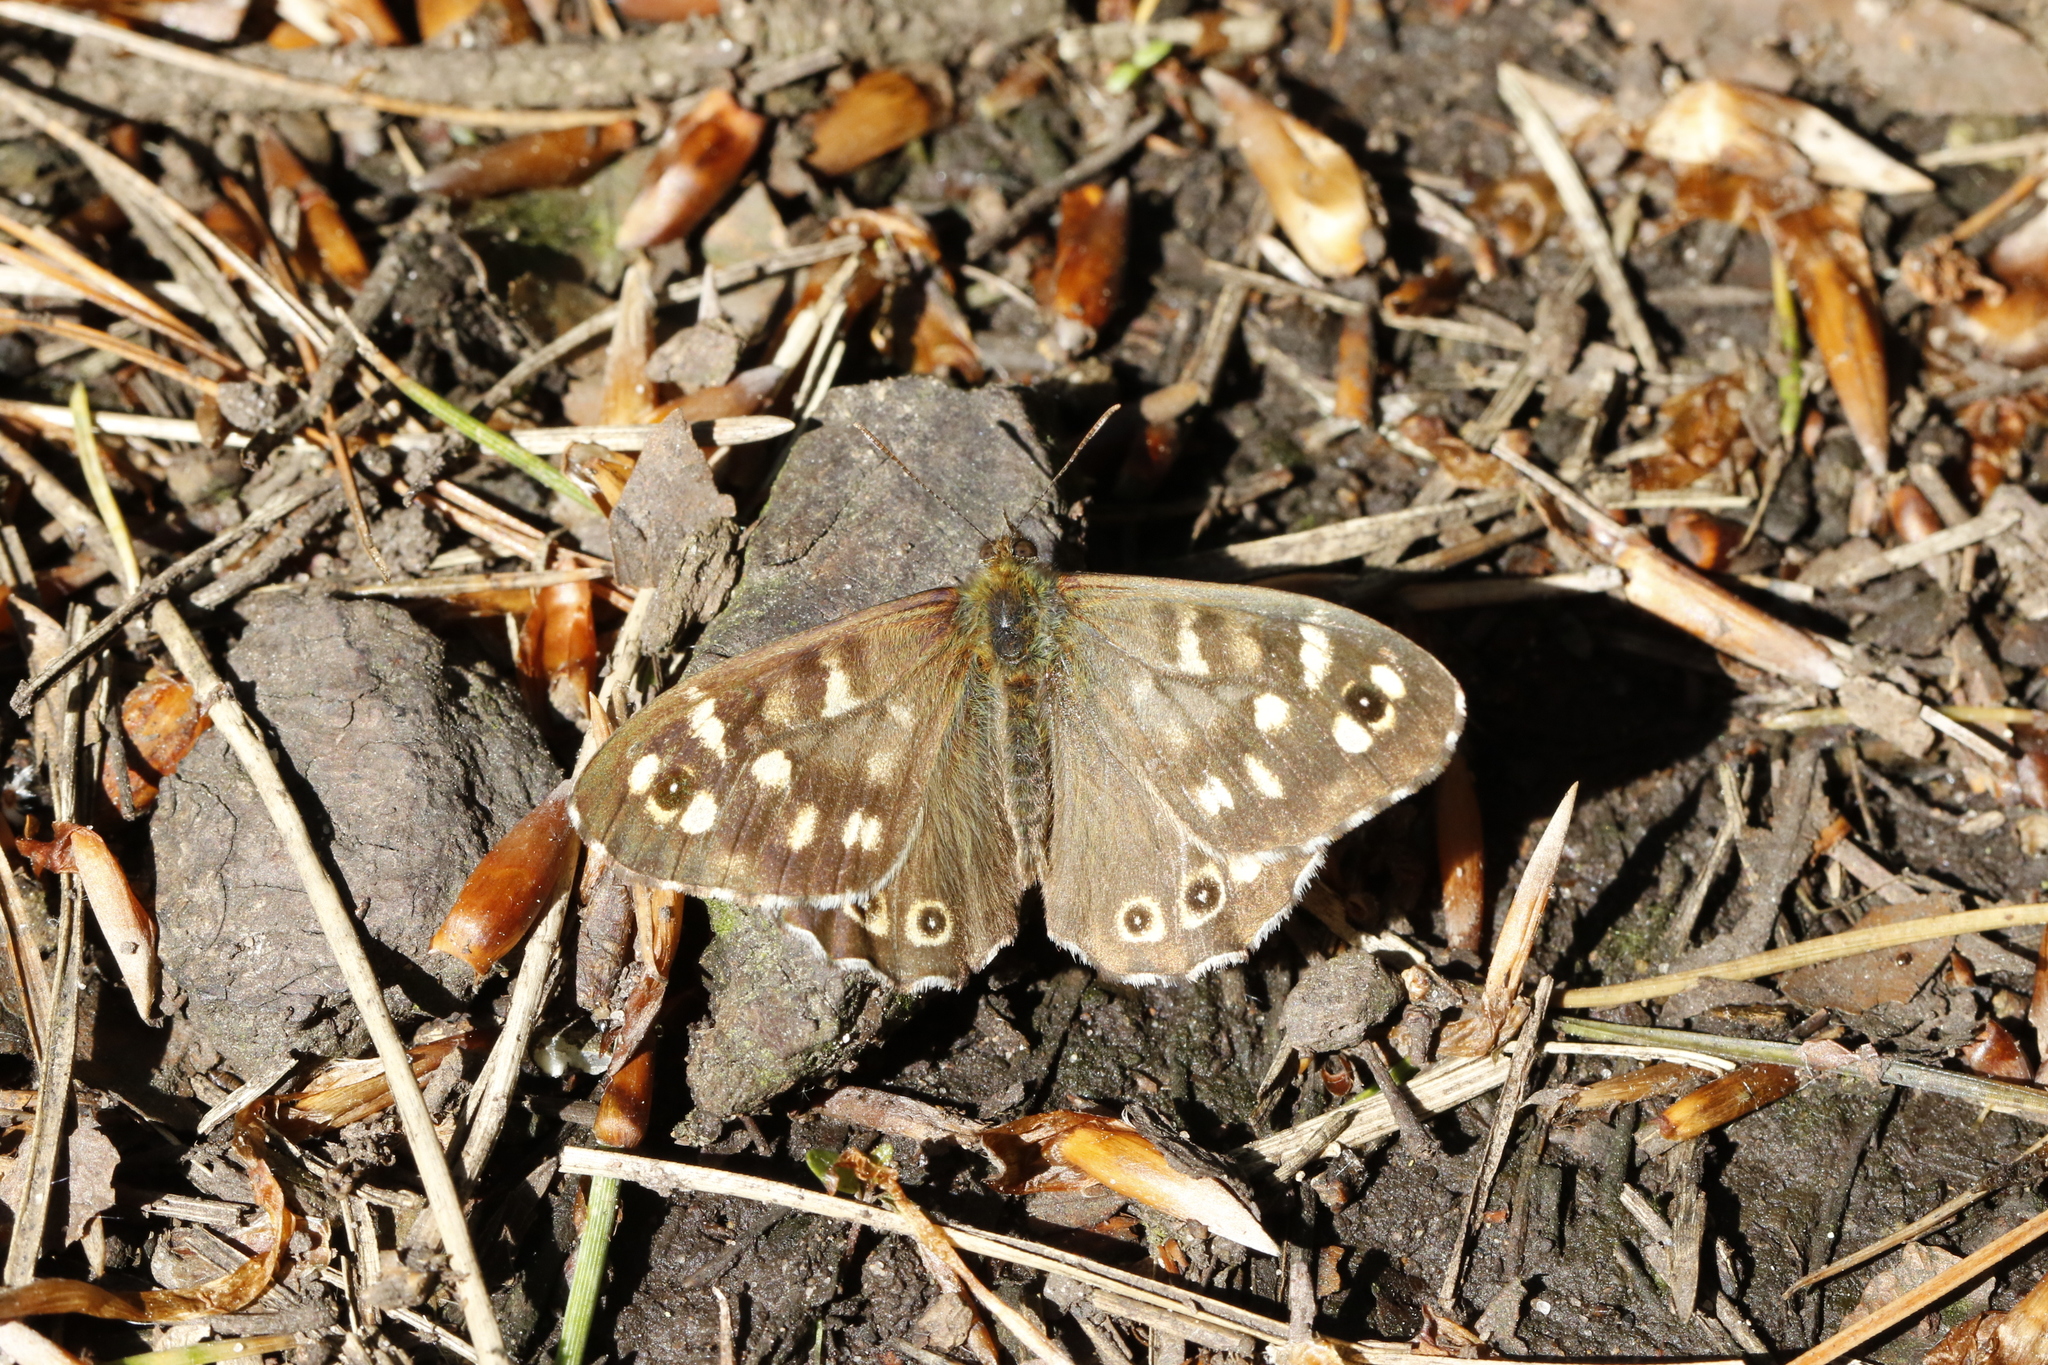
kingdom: Animalia
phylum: Arthropoda
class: Insecta
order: Lepidoptera
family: Nymphalidae
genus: Pararge
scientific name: Pararge aegeria
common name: Speckled wood
